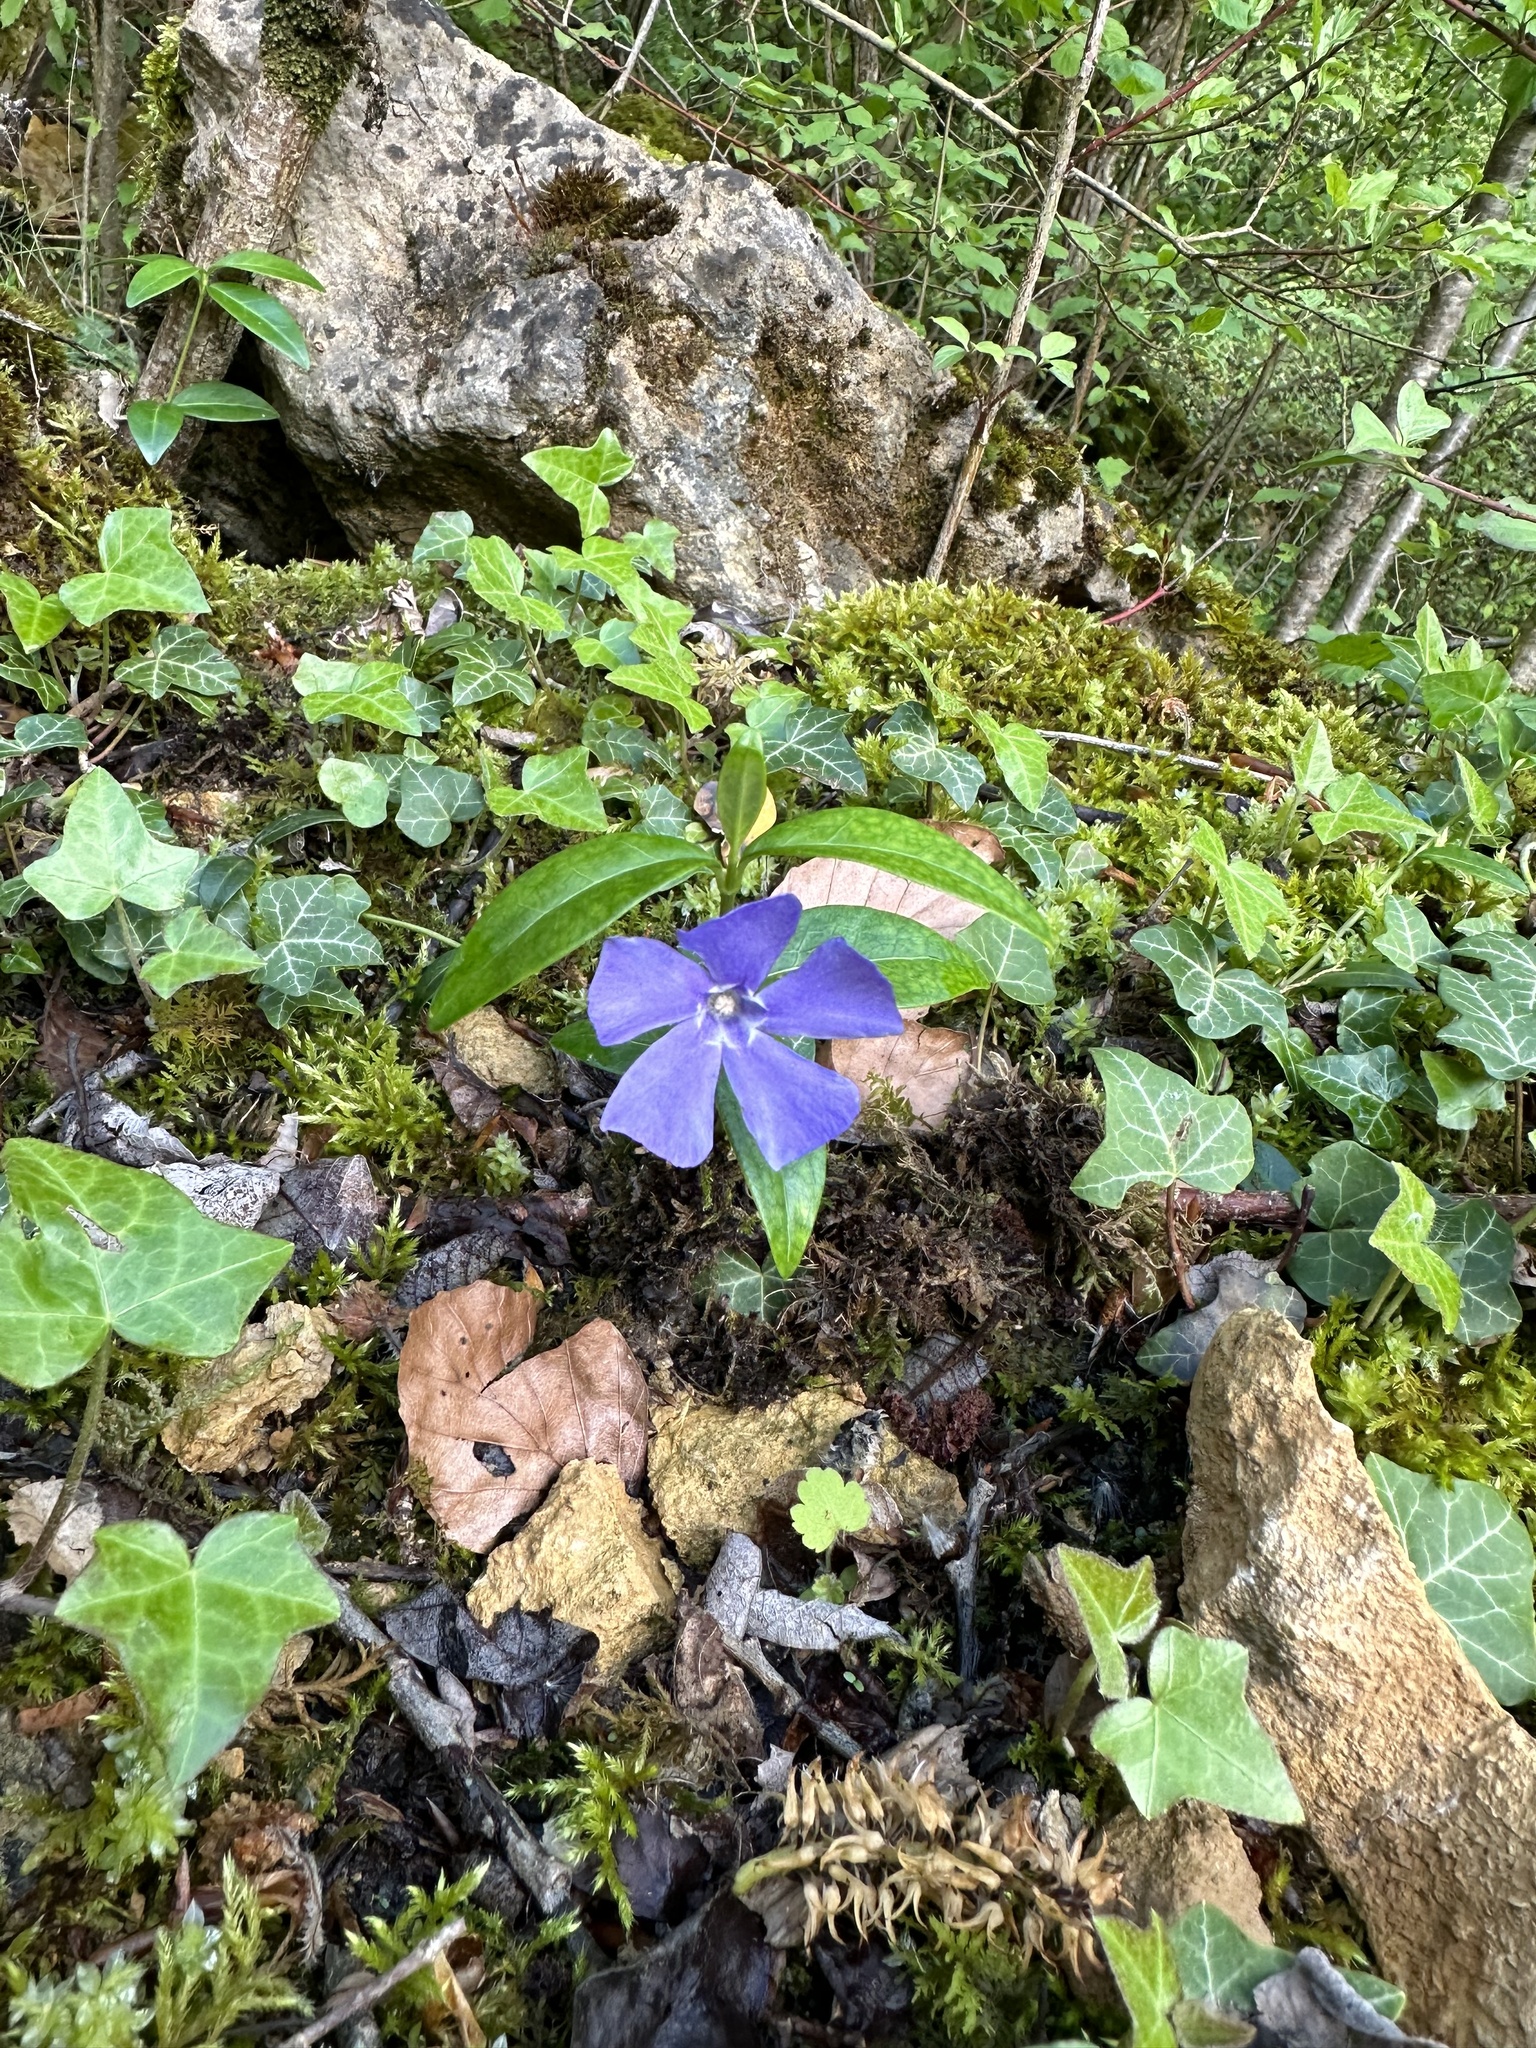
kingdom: Plantae
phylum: Tracheophyta
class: Magnoliopsida
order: Gentianales
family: Apocynaceae
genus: Vinca
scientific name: Vinca minor
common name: Lesser periwinkle
